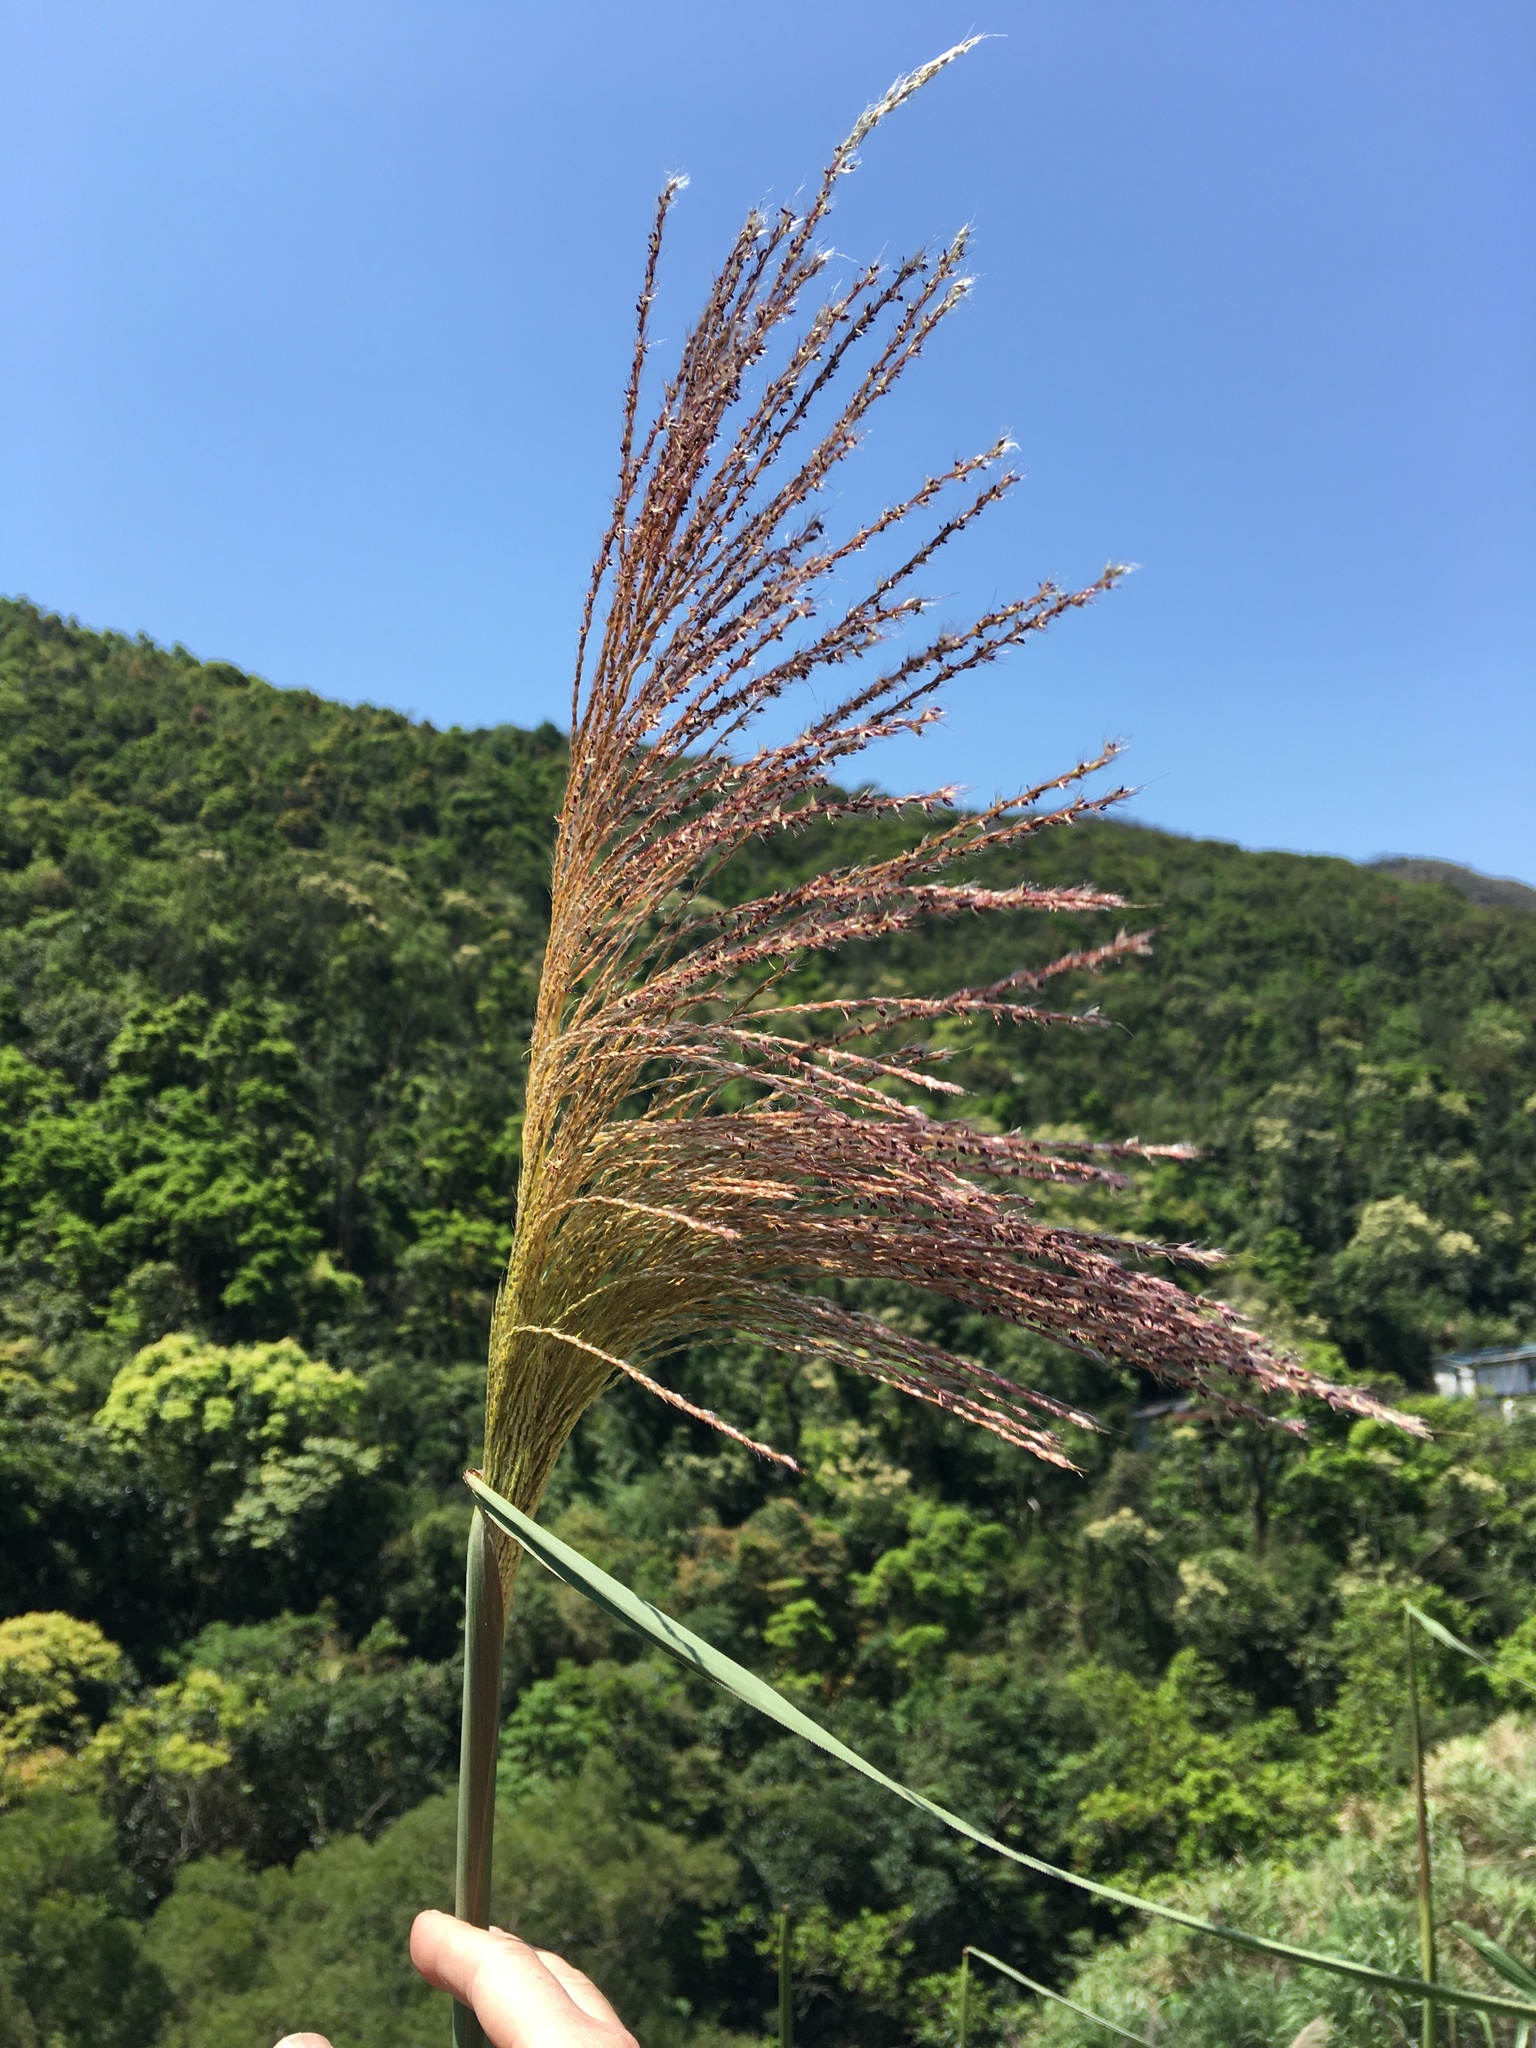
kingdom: Plantae
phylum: Tracheophyta
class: Liliopsida
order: Poales
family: Poaceae
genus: Miscanthus
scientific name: Miscanthus sinensis
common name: Chinese silvergrass
